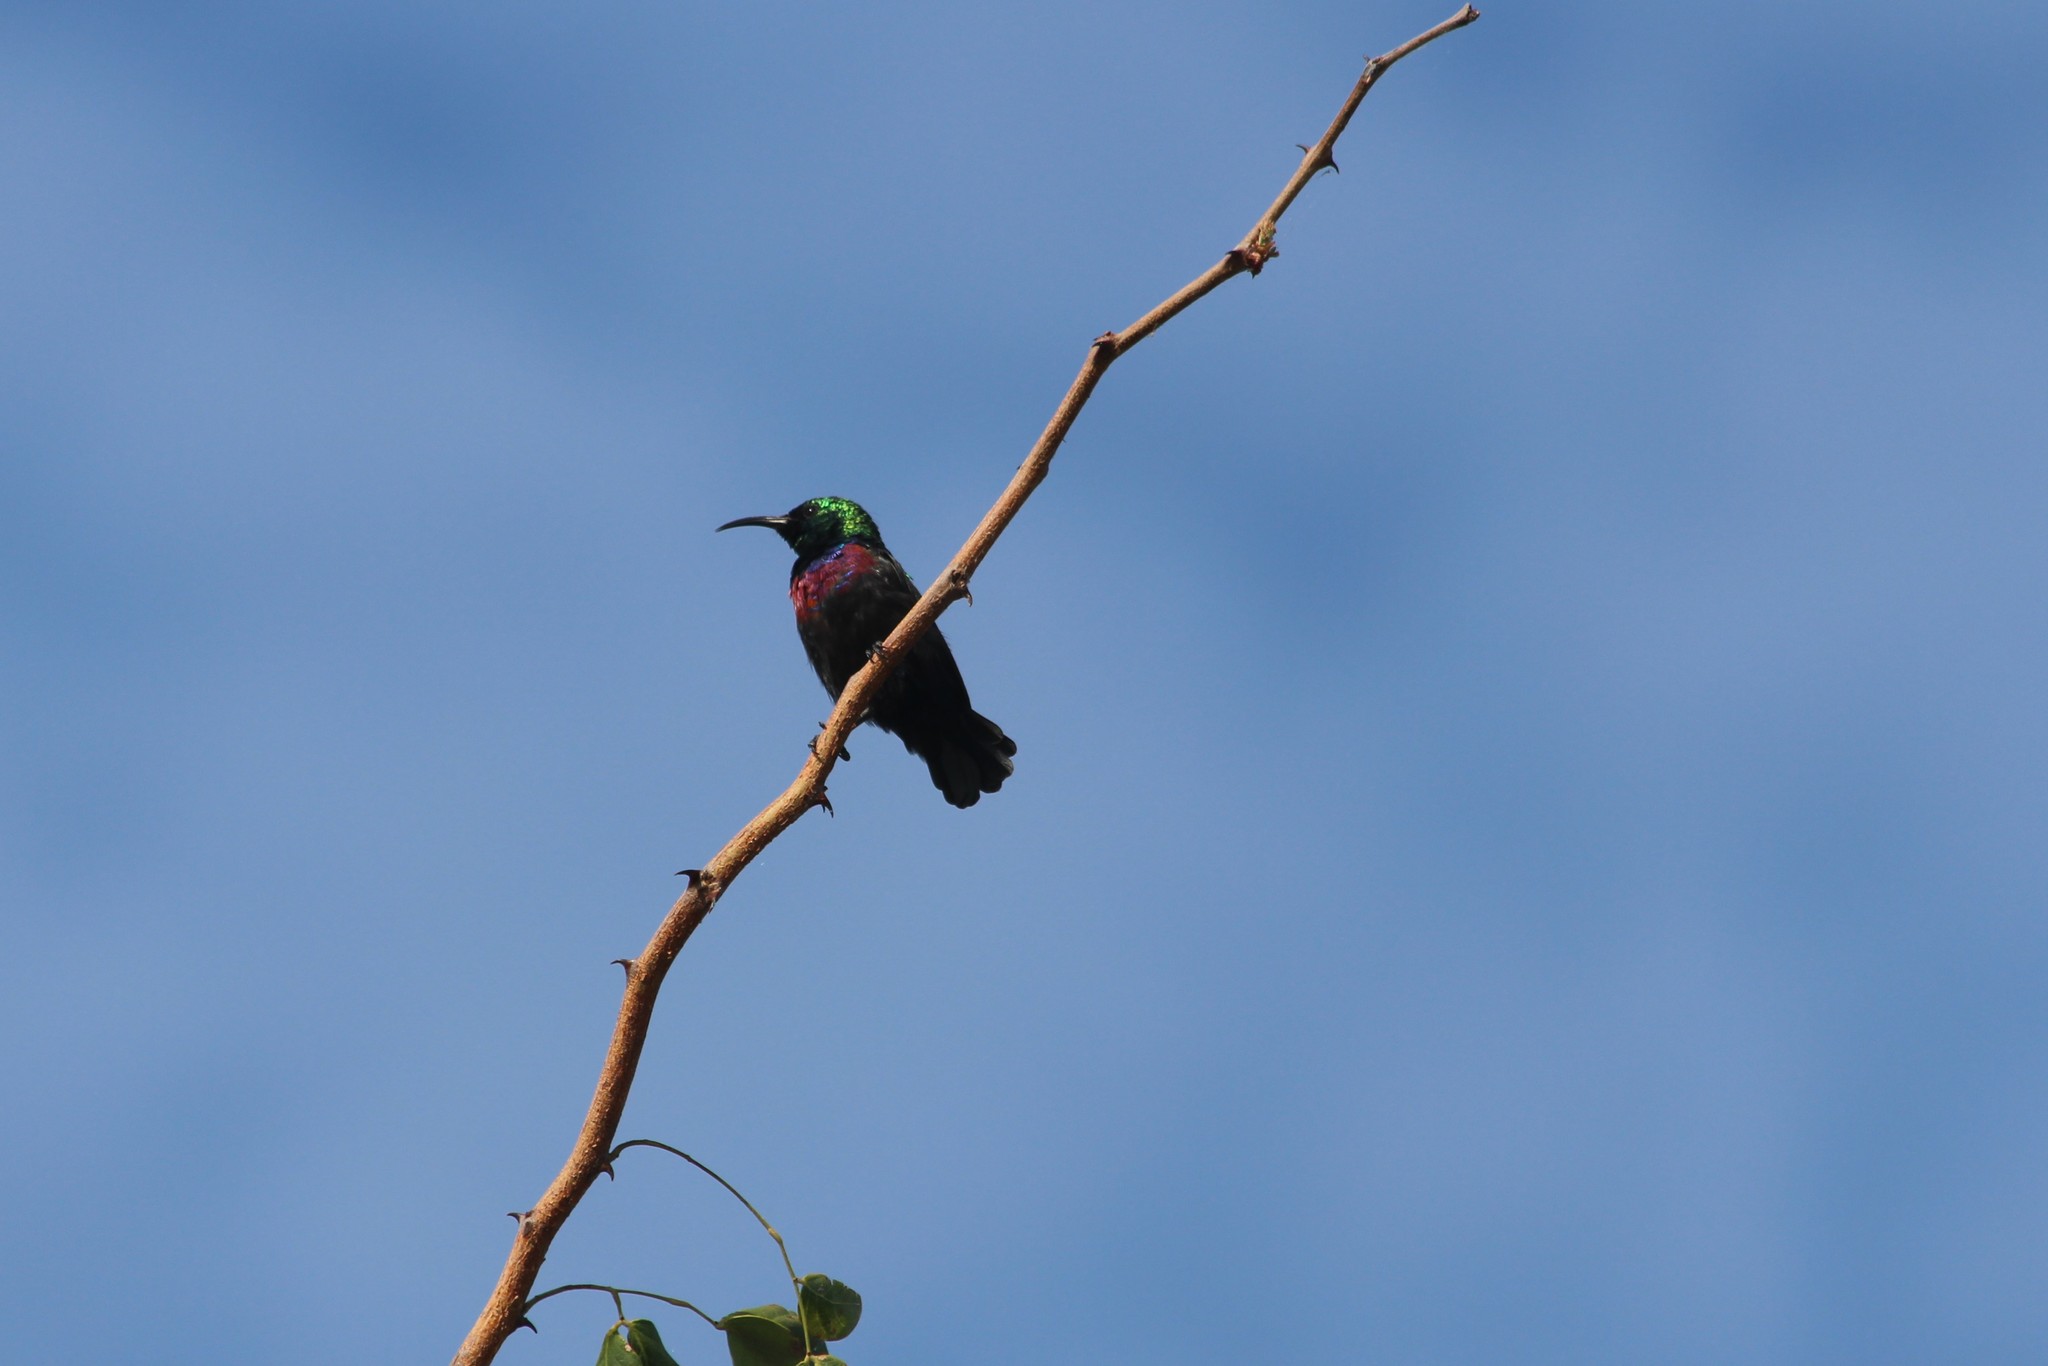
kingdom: Animalia
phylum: Chordata
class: Aves
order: Passeriformes
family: Nectariniidae
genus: Cinnyris
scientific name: Cinnyris mariquensis
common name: Marico sunbird
